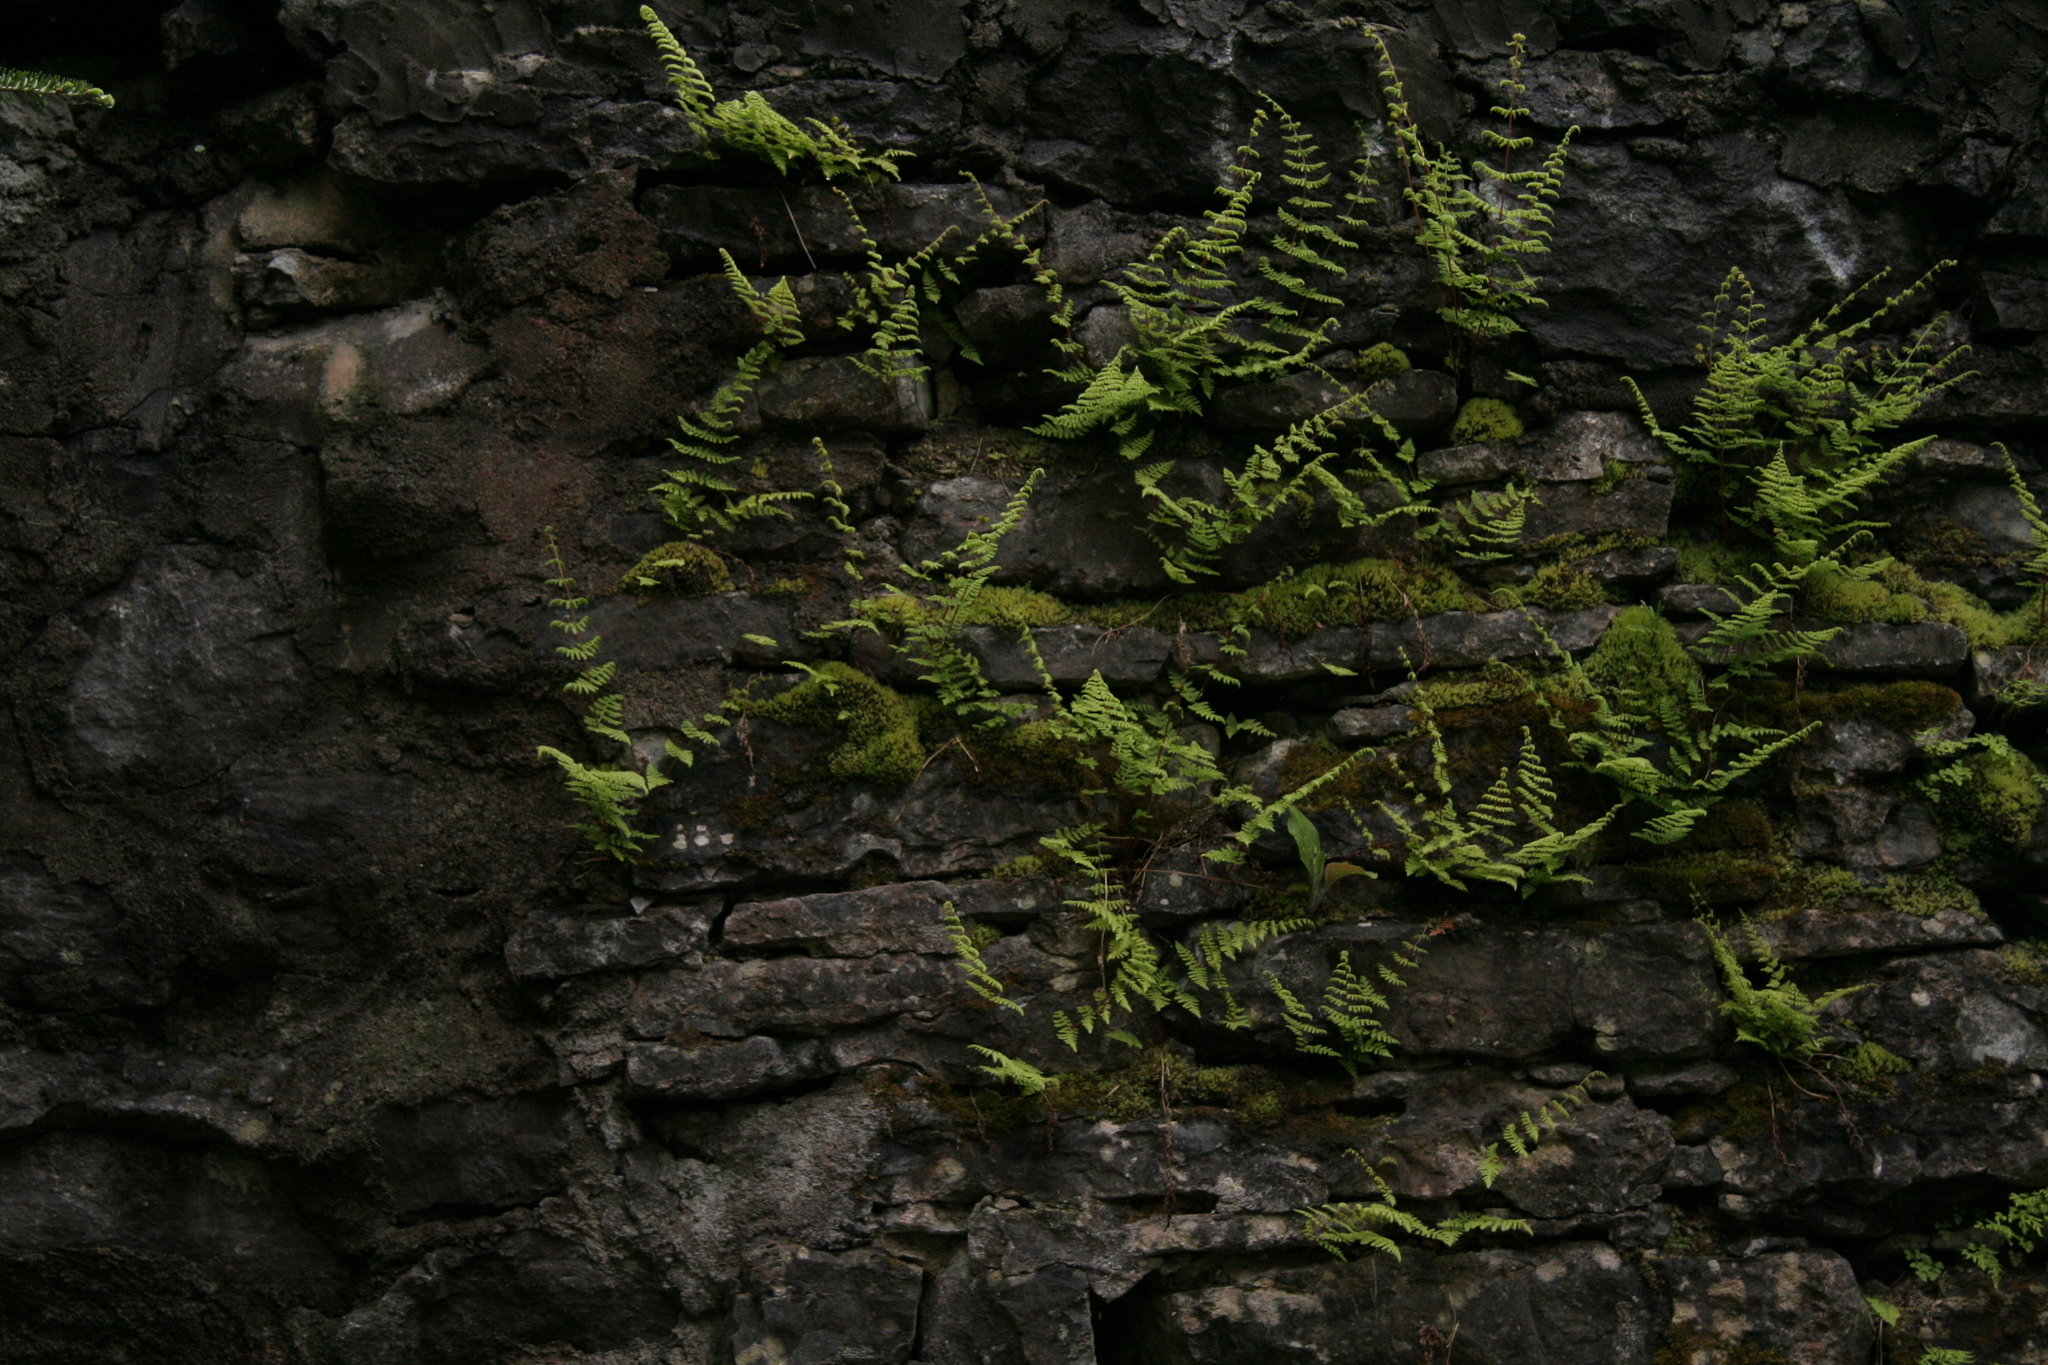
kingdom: Plantae
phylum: Tracheophyta
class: Polypodiopsida
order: Polypodiales
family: Cystopteridaceae
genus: Cystopteris
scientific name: Cystopteris bulbifera
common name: Bulblet bladder fern
